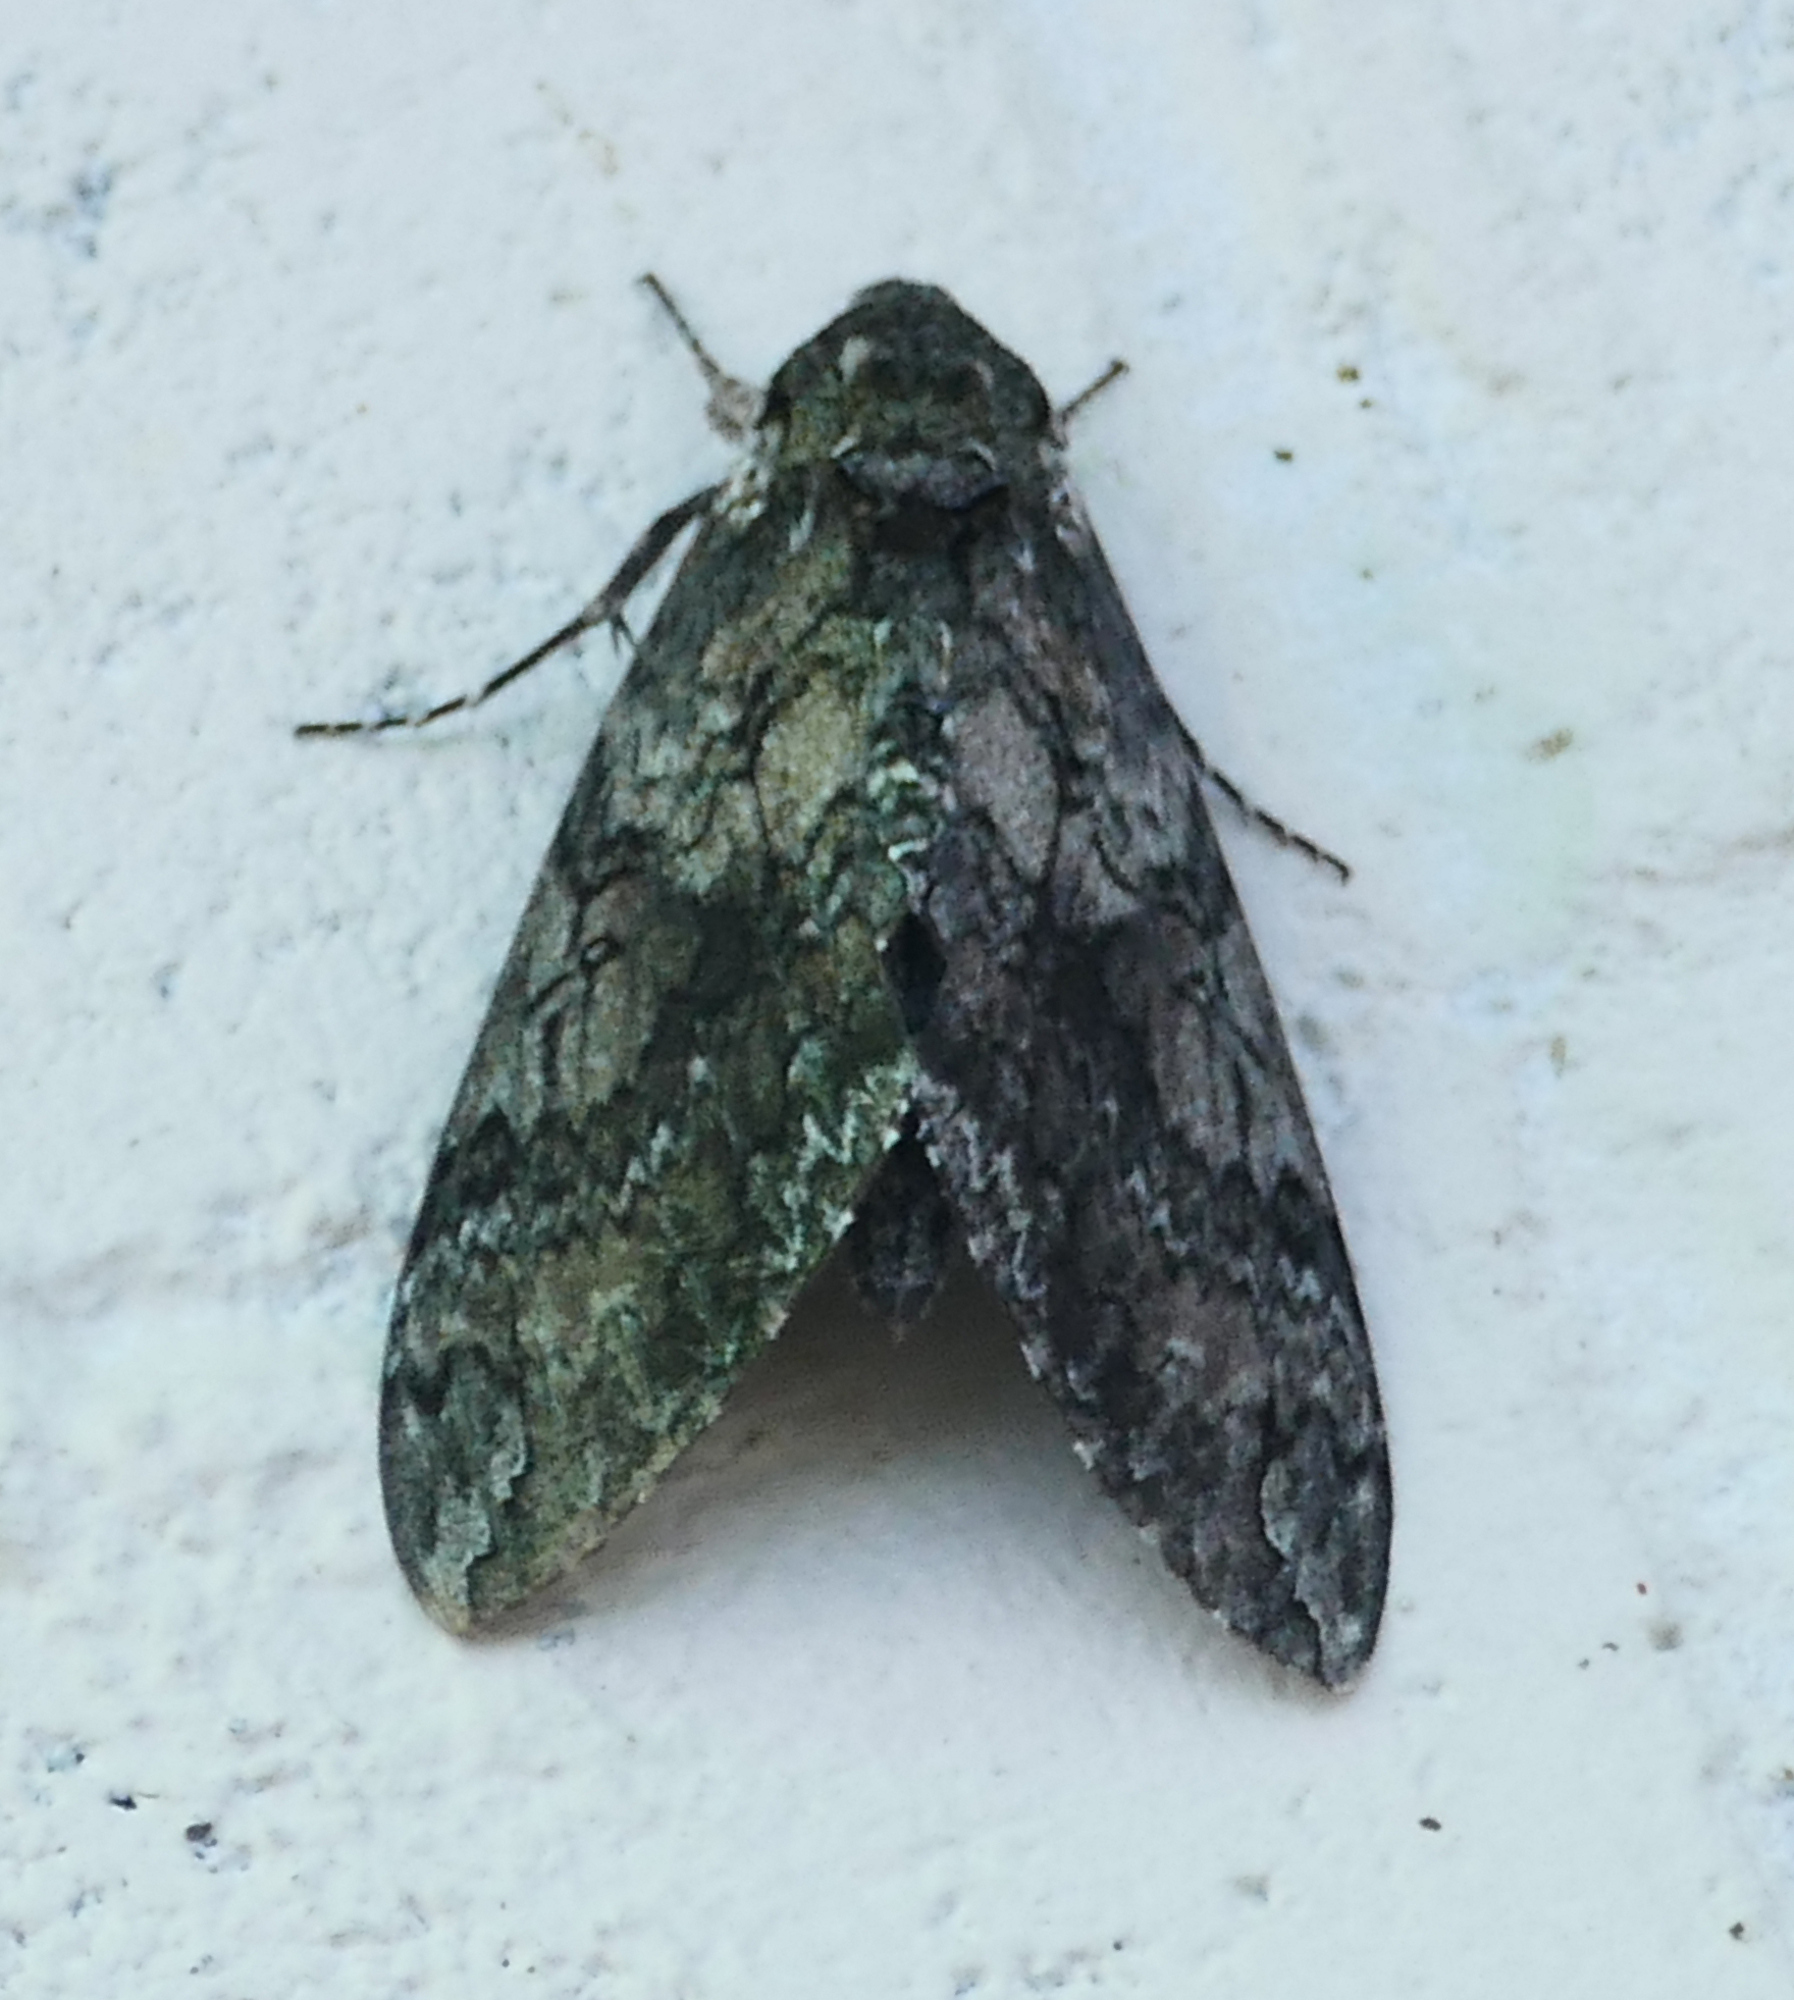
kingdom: Animalia
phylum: Arthropoda
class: Insecta
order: Lepidoptera
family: Sphingidae
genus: Manduca
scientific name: Manduca sexta
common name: Carolina sphinx
